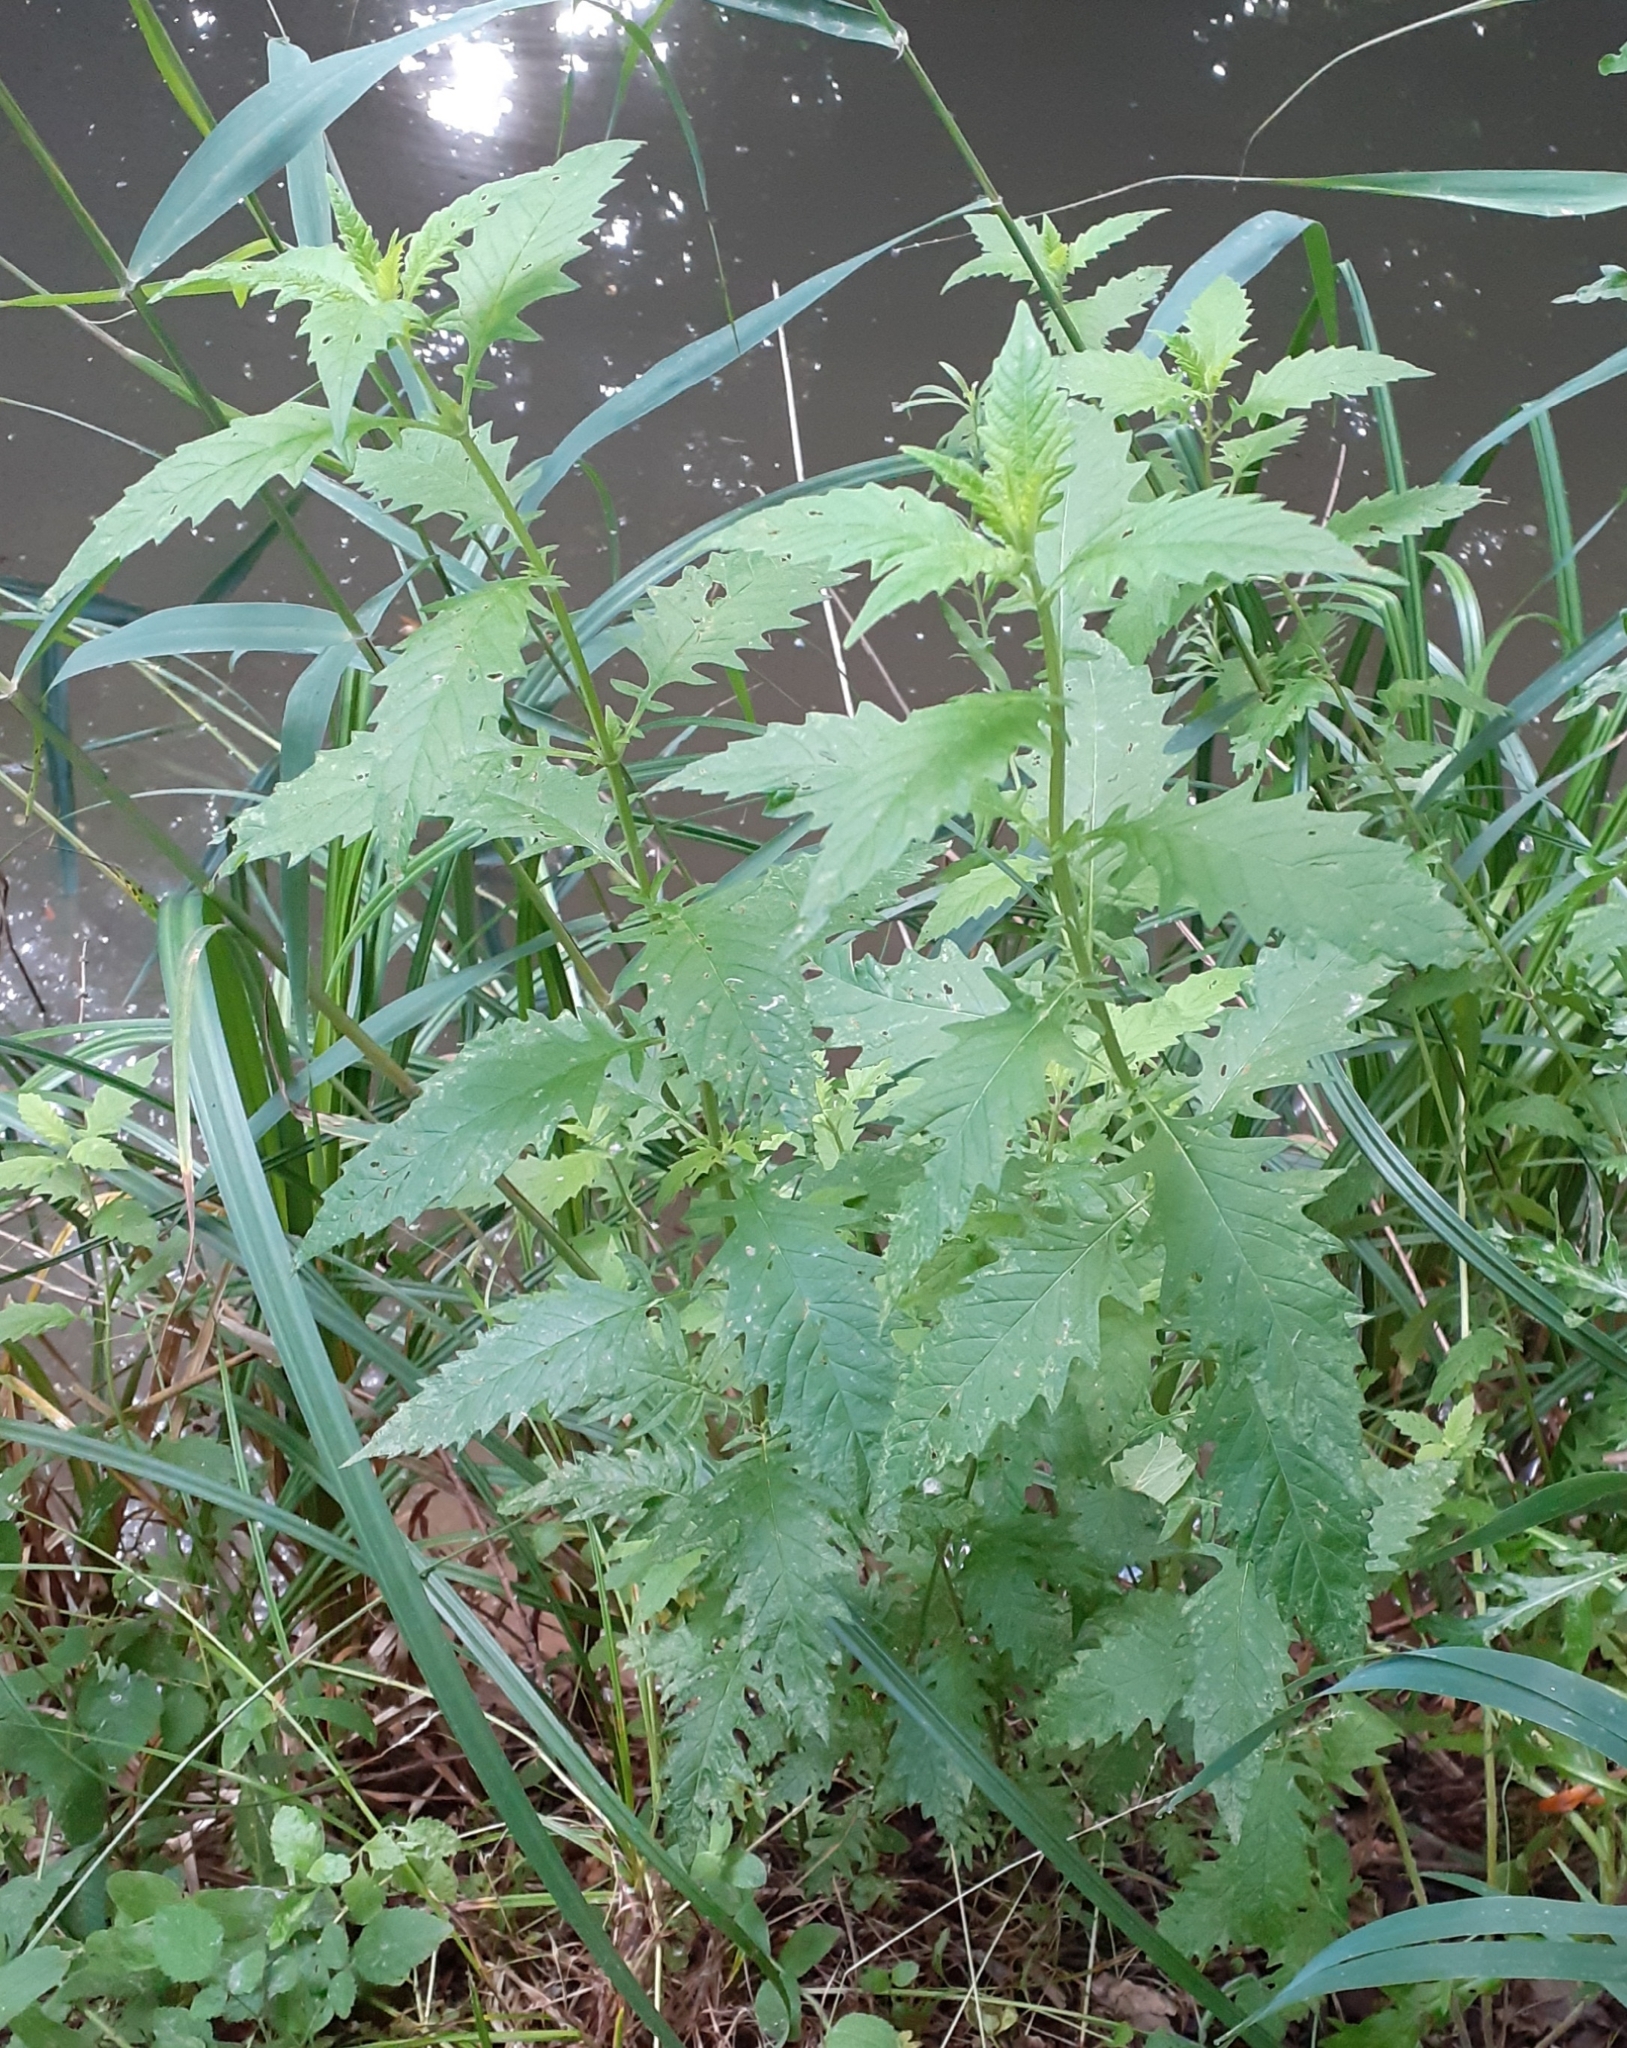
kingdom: Plantae
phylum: Tracheophyta
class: Magnoliopsida
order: Lamiales
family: Lamiaceae
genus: Lycopus
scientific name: Lycopus europaeus
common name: European bugleweed
